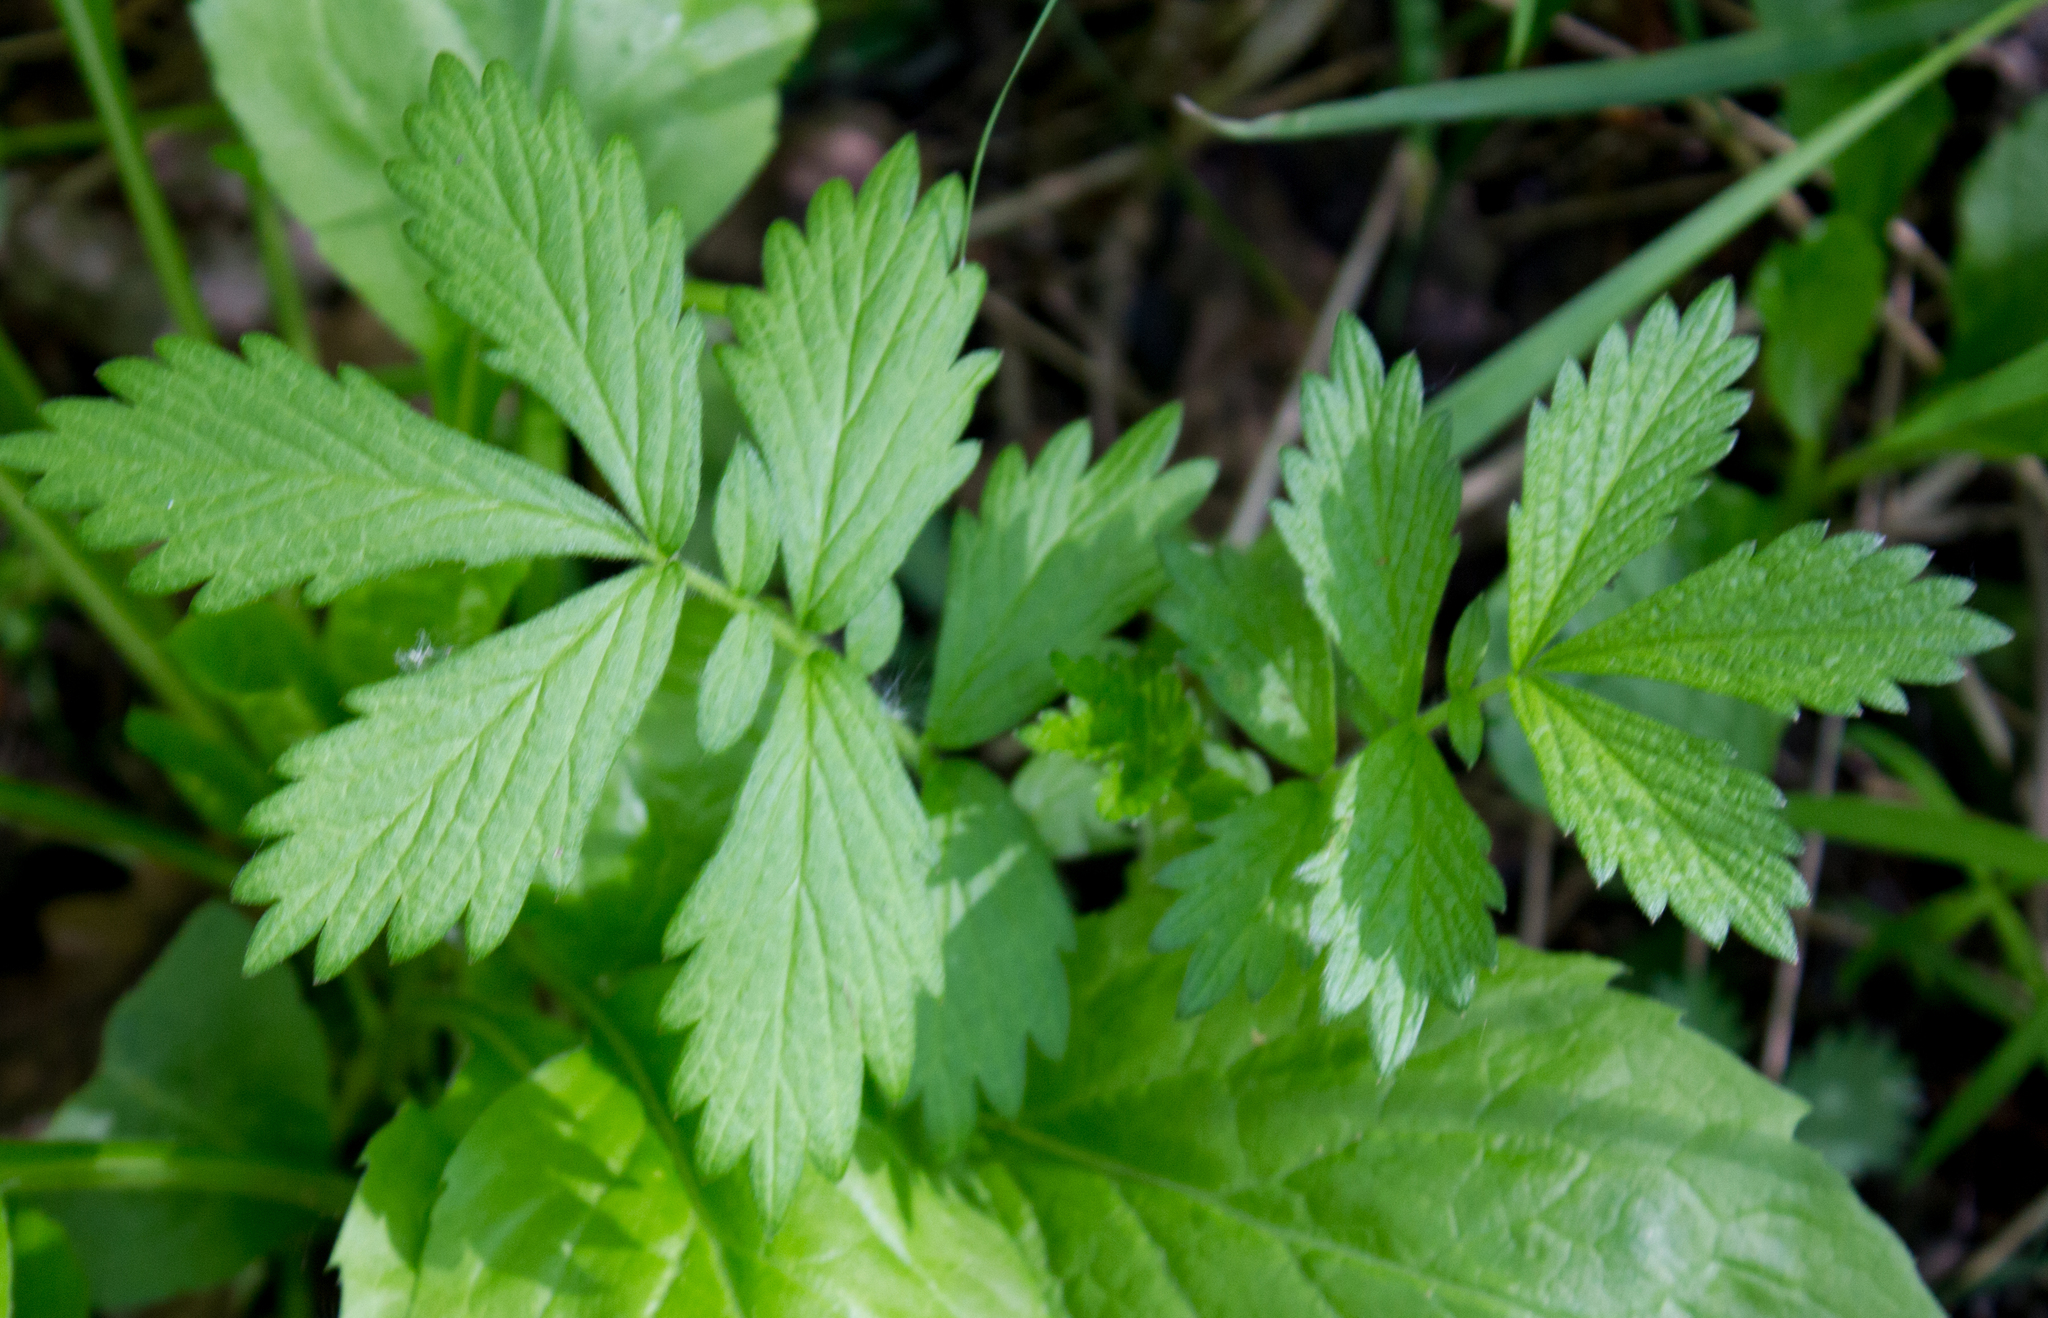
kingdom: Plantae
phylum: Tracheophyta
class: Magnoliopsida
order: Rosales
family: Rosaceae
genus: Agrimonia
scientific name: Agrimonia pilosa
